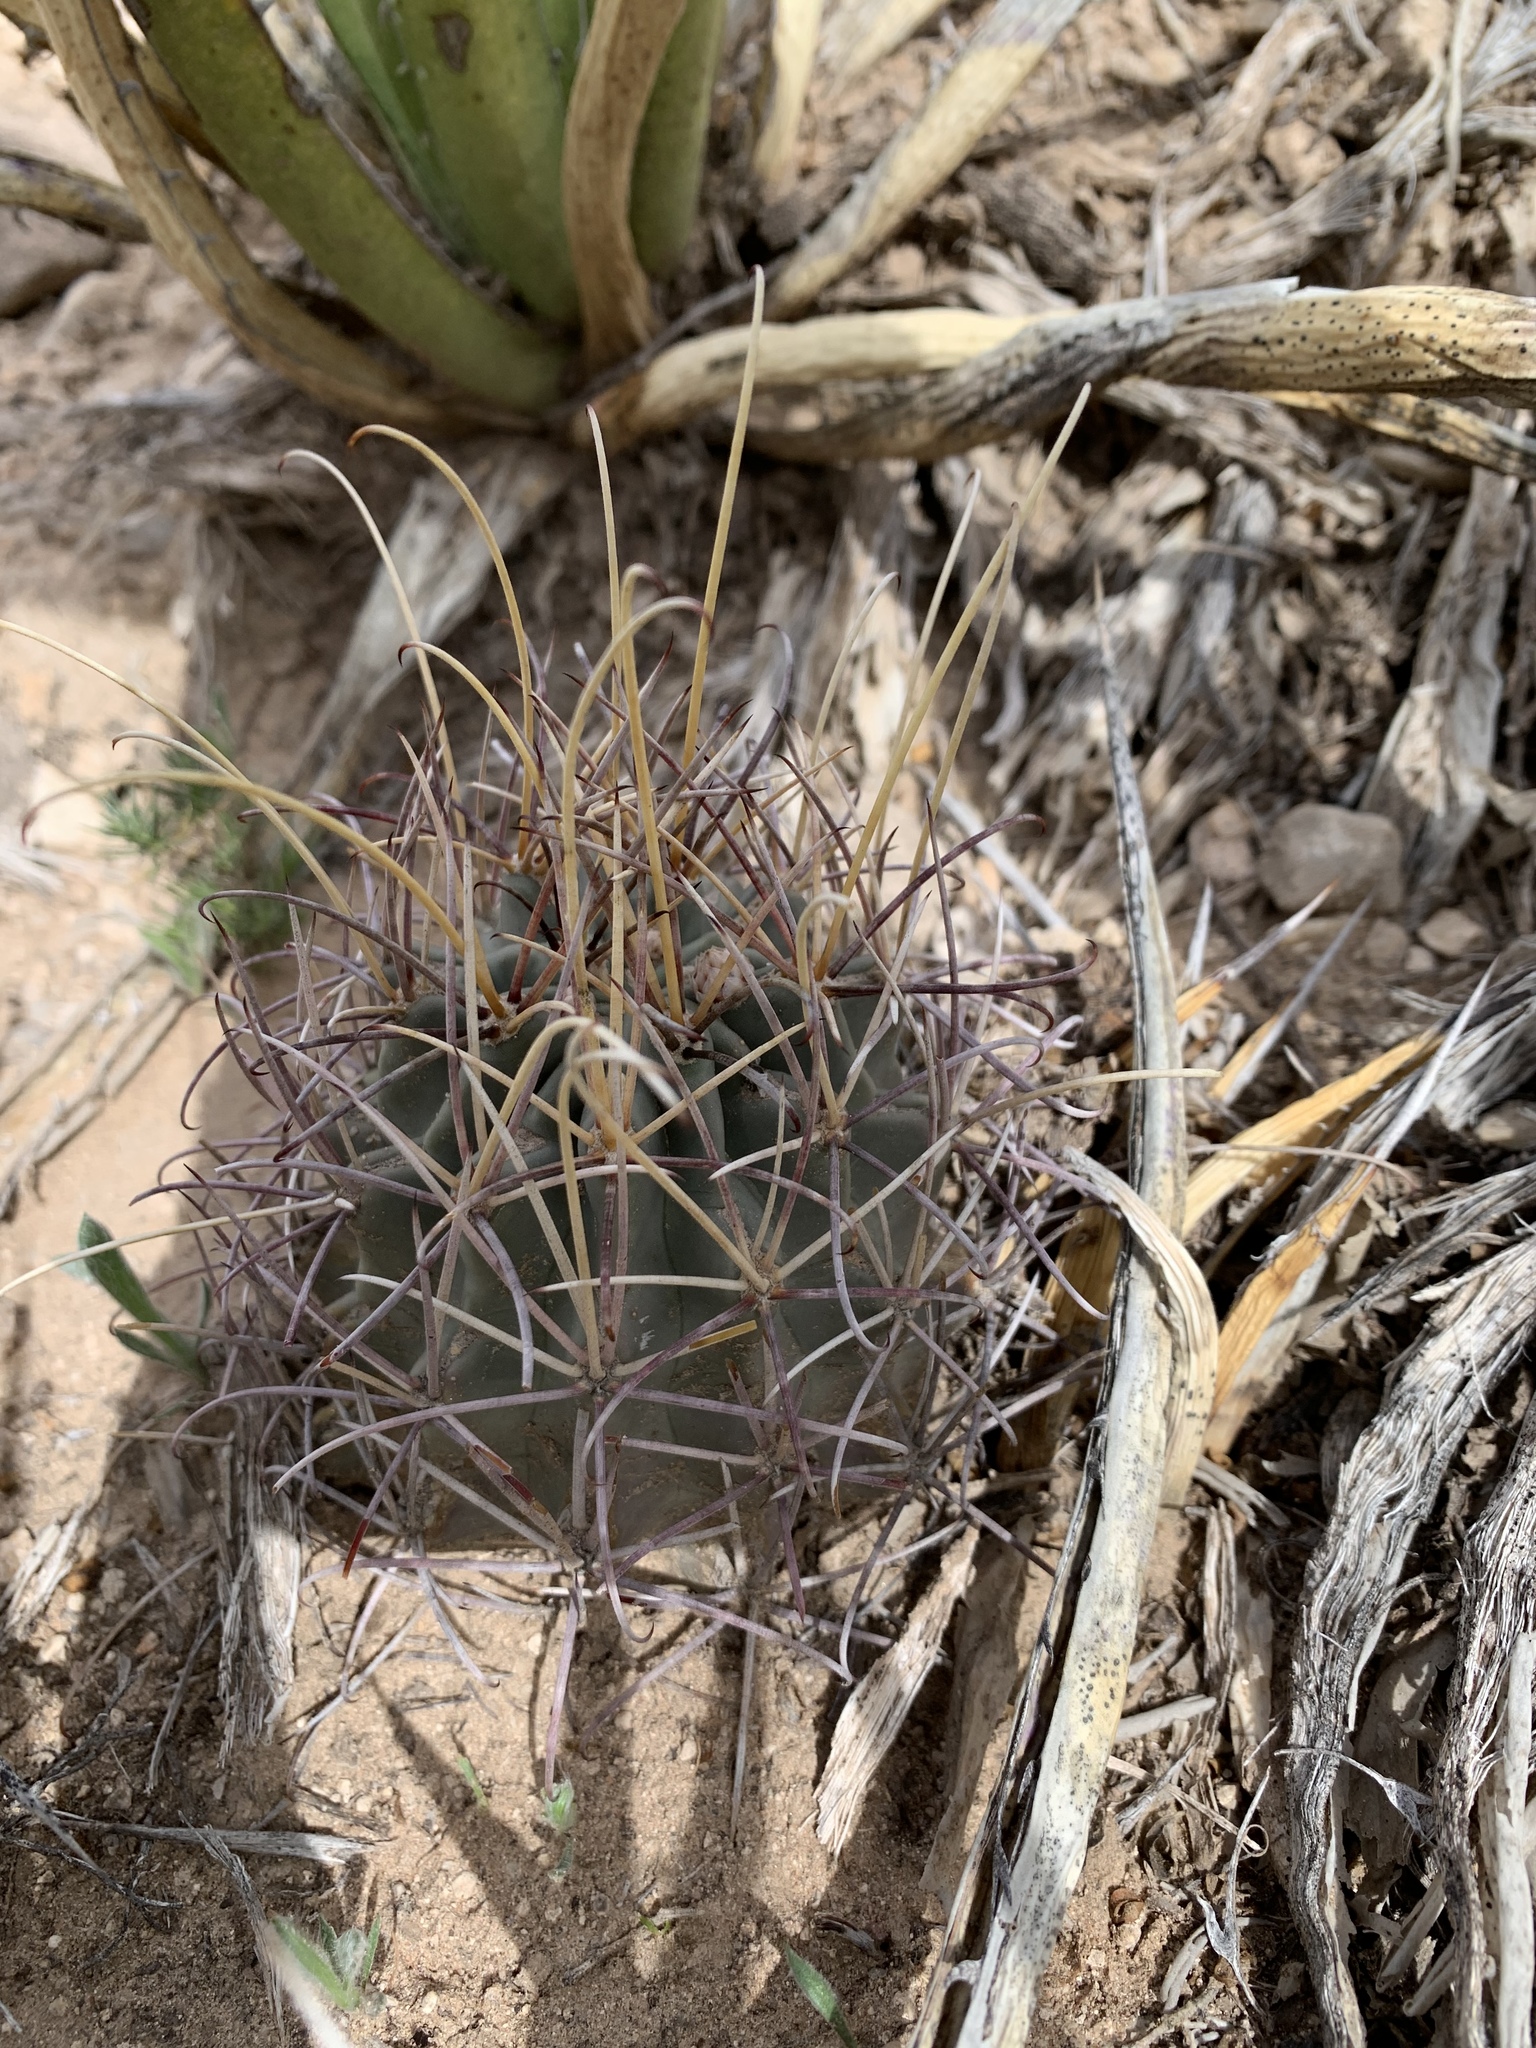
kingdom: Plantae
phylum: Tracheophyta
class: Magnoliopsida
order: Caryophyllales
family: Cactaceae
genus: Ferocactus
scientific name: Ferocactus uncinatus
